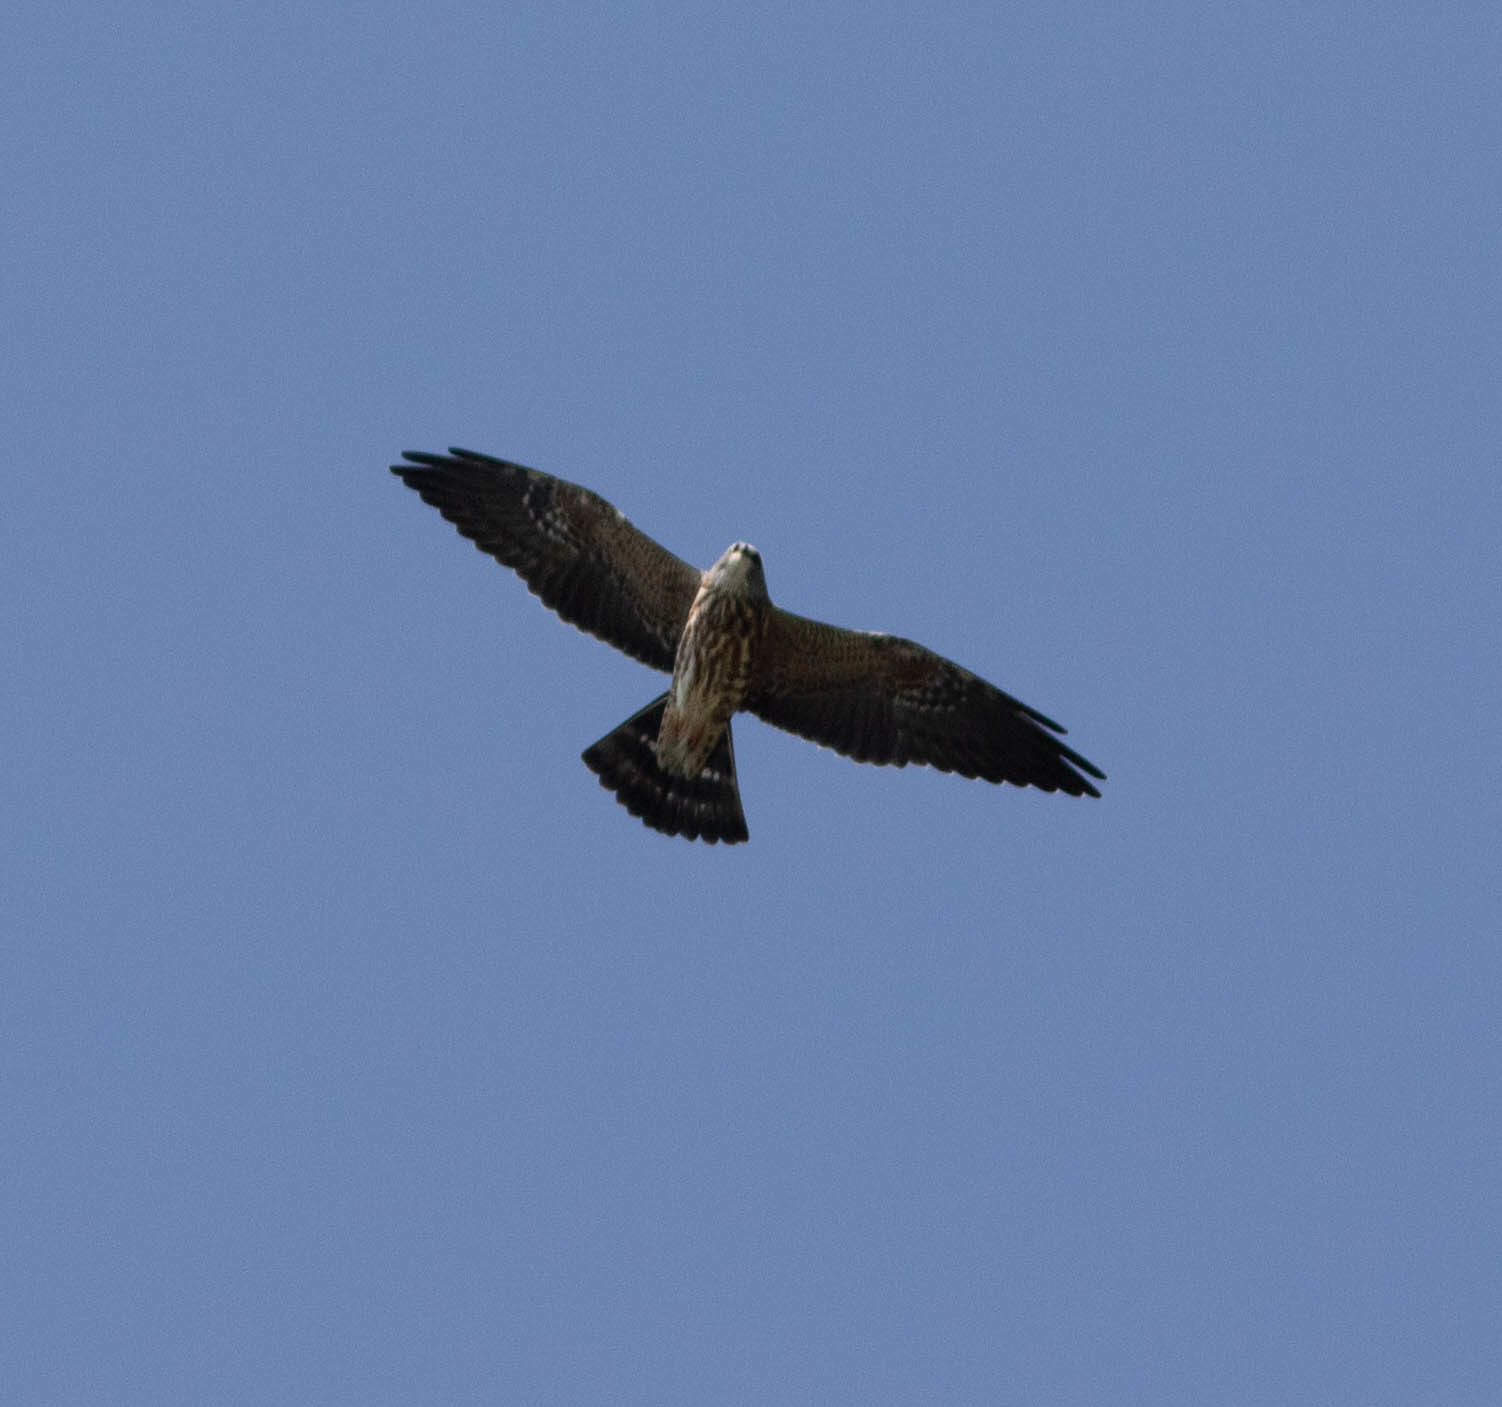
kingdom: Animalia
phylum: Chordata
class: Aves
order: Accipitriformes
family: Accipitridae
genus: Ictinia
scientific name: Ictinia mississippiensis
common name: Mississippi kite
